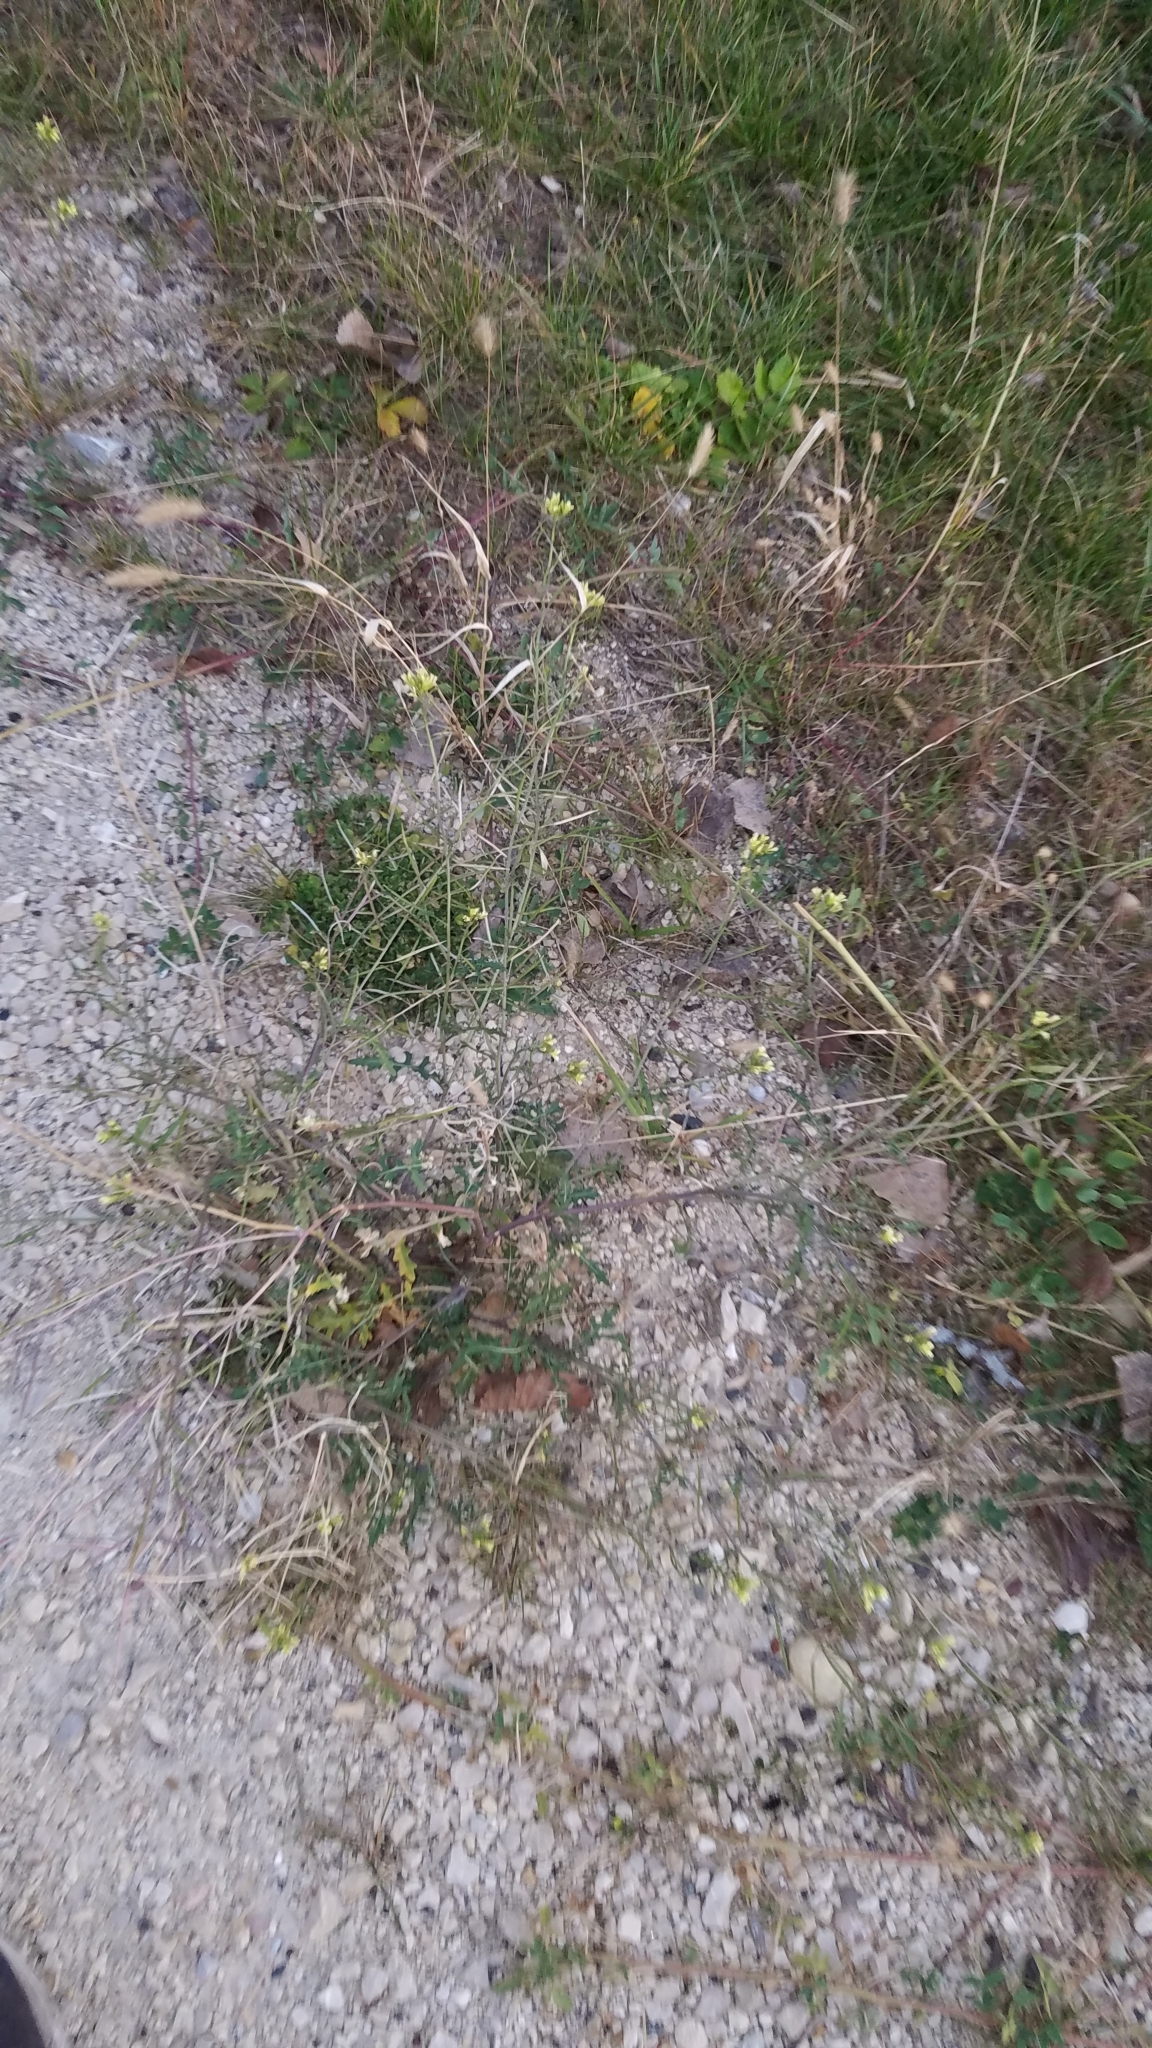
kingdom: Plantae
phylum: Tracheophyta
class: Magnoliopsida
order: Brassicales
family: Brassicaceae
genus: Erucastrum
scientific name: Erucastrum gallicum
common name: Hairy rocket
